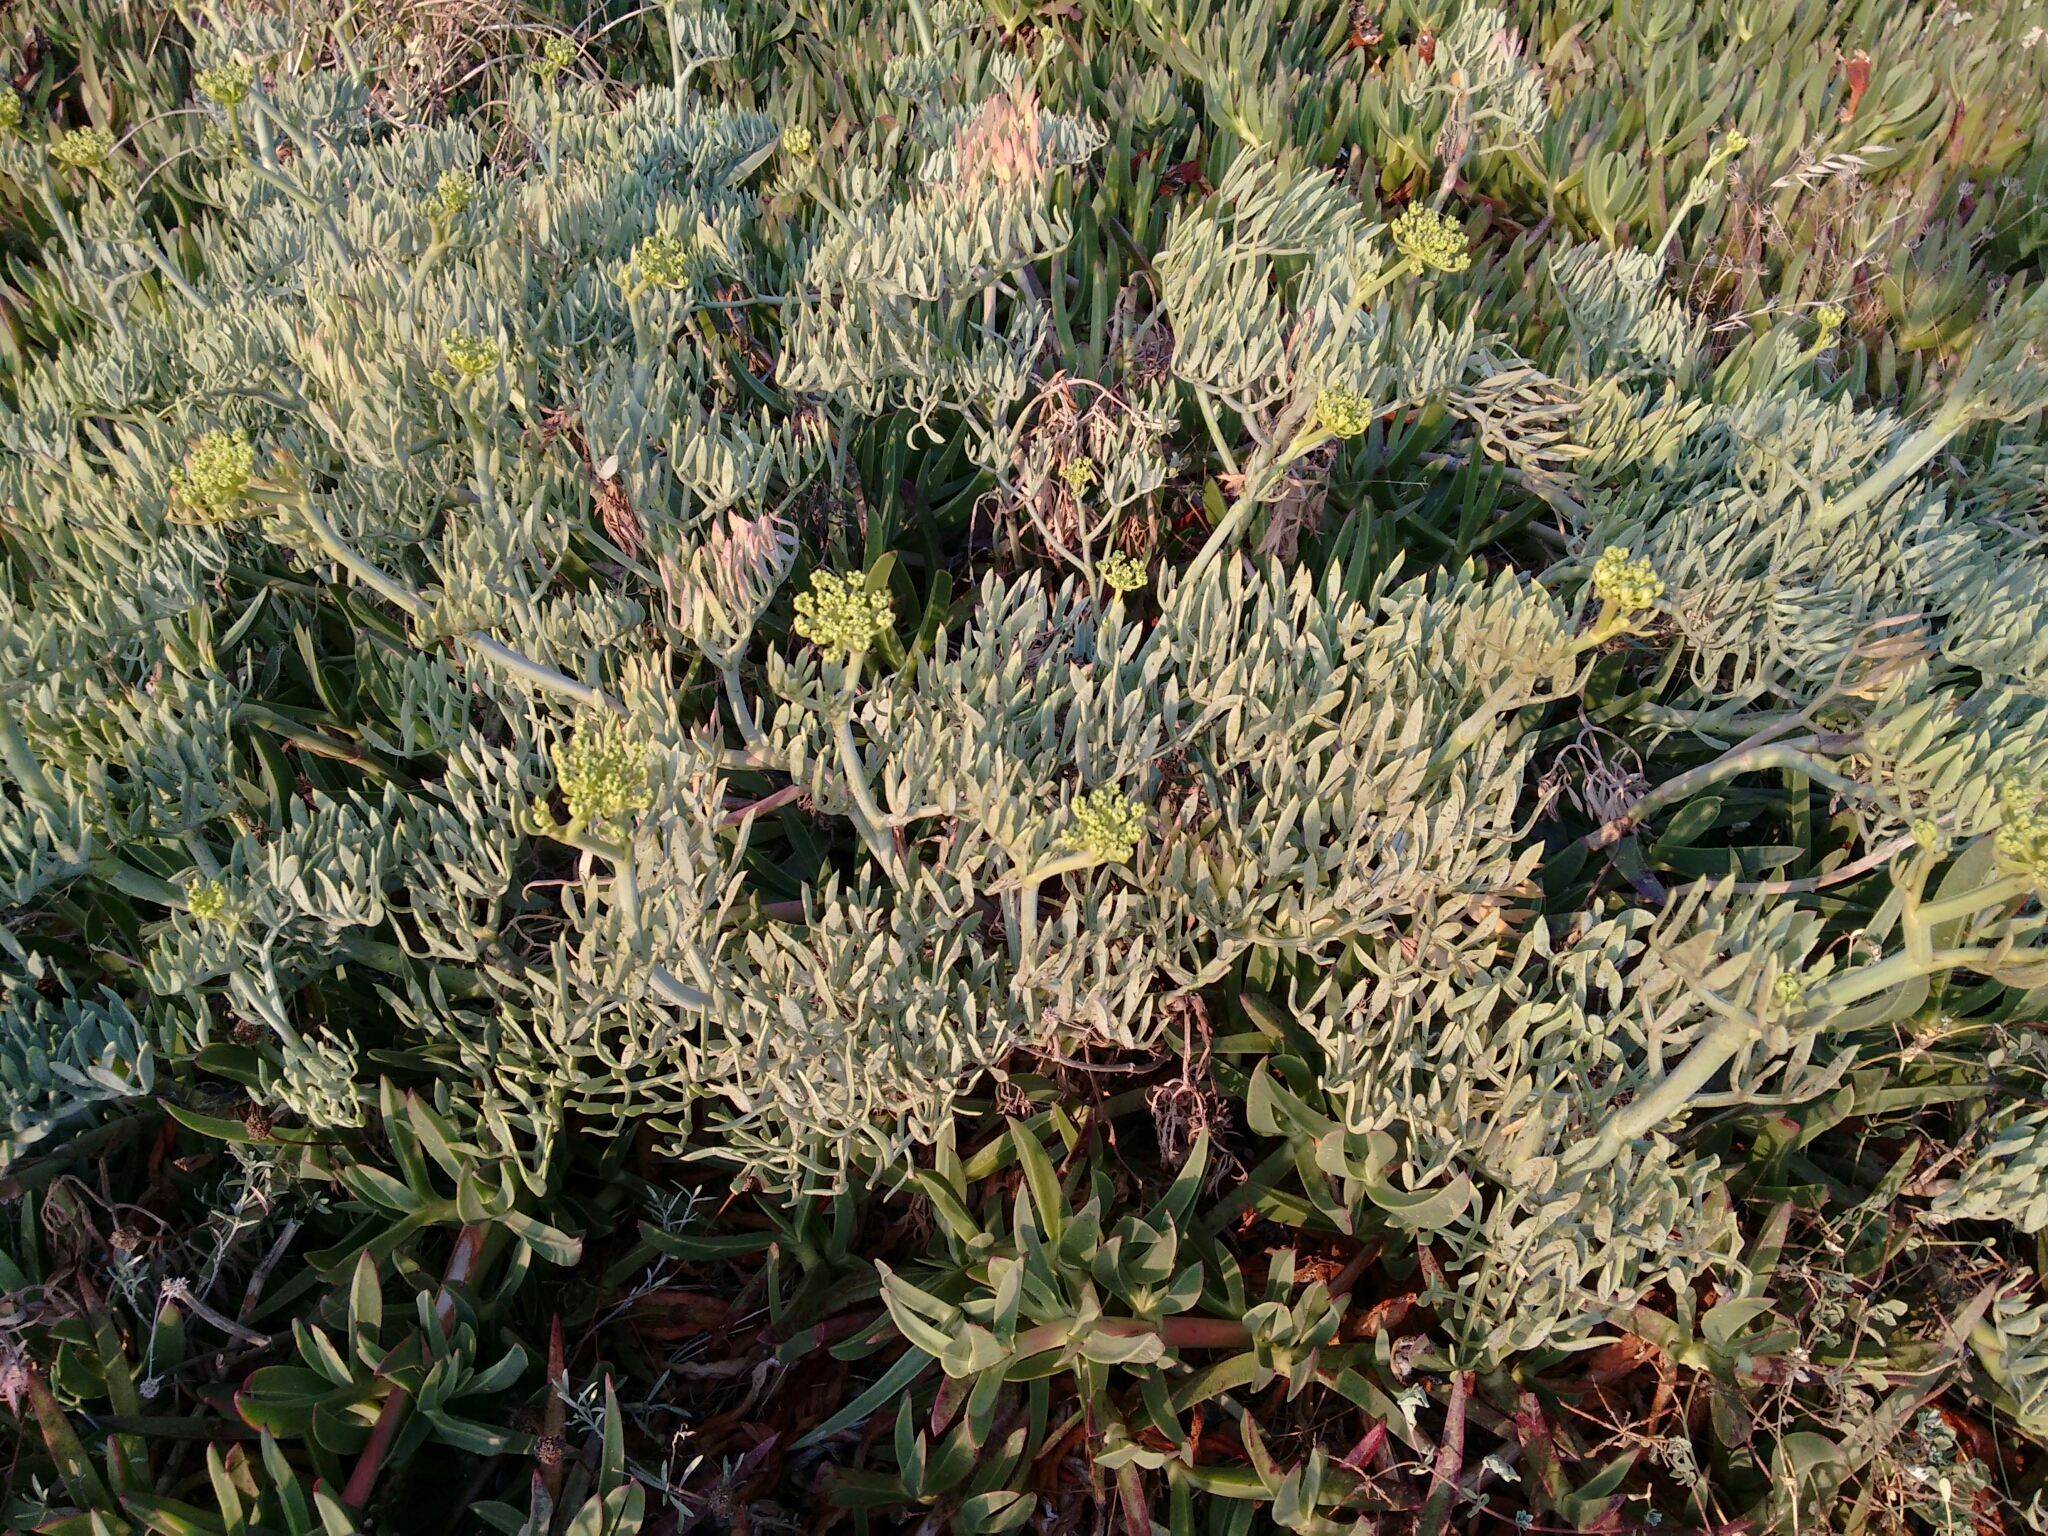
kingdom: Plantae
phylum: Tracheophyta
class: Magnoliopsida
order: Apiales
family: Apiaceae
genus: Crithmum
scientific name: Crithmum maritimum
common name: Rock samphire
